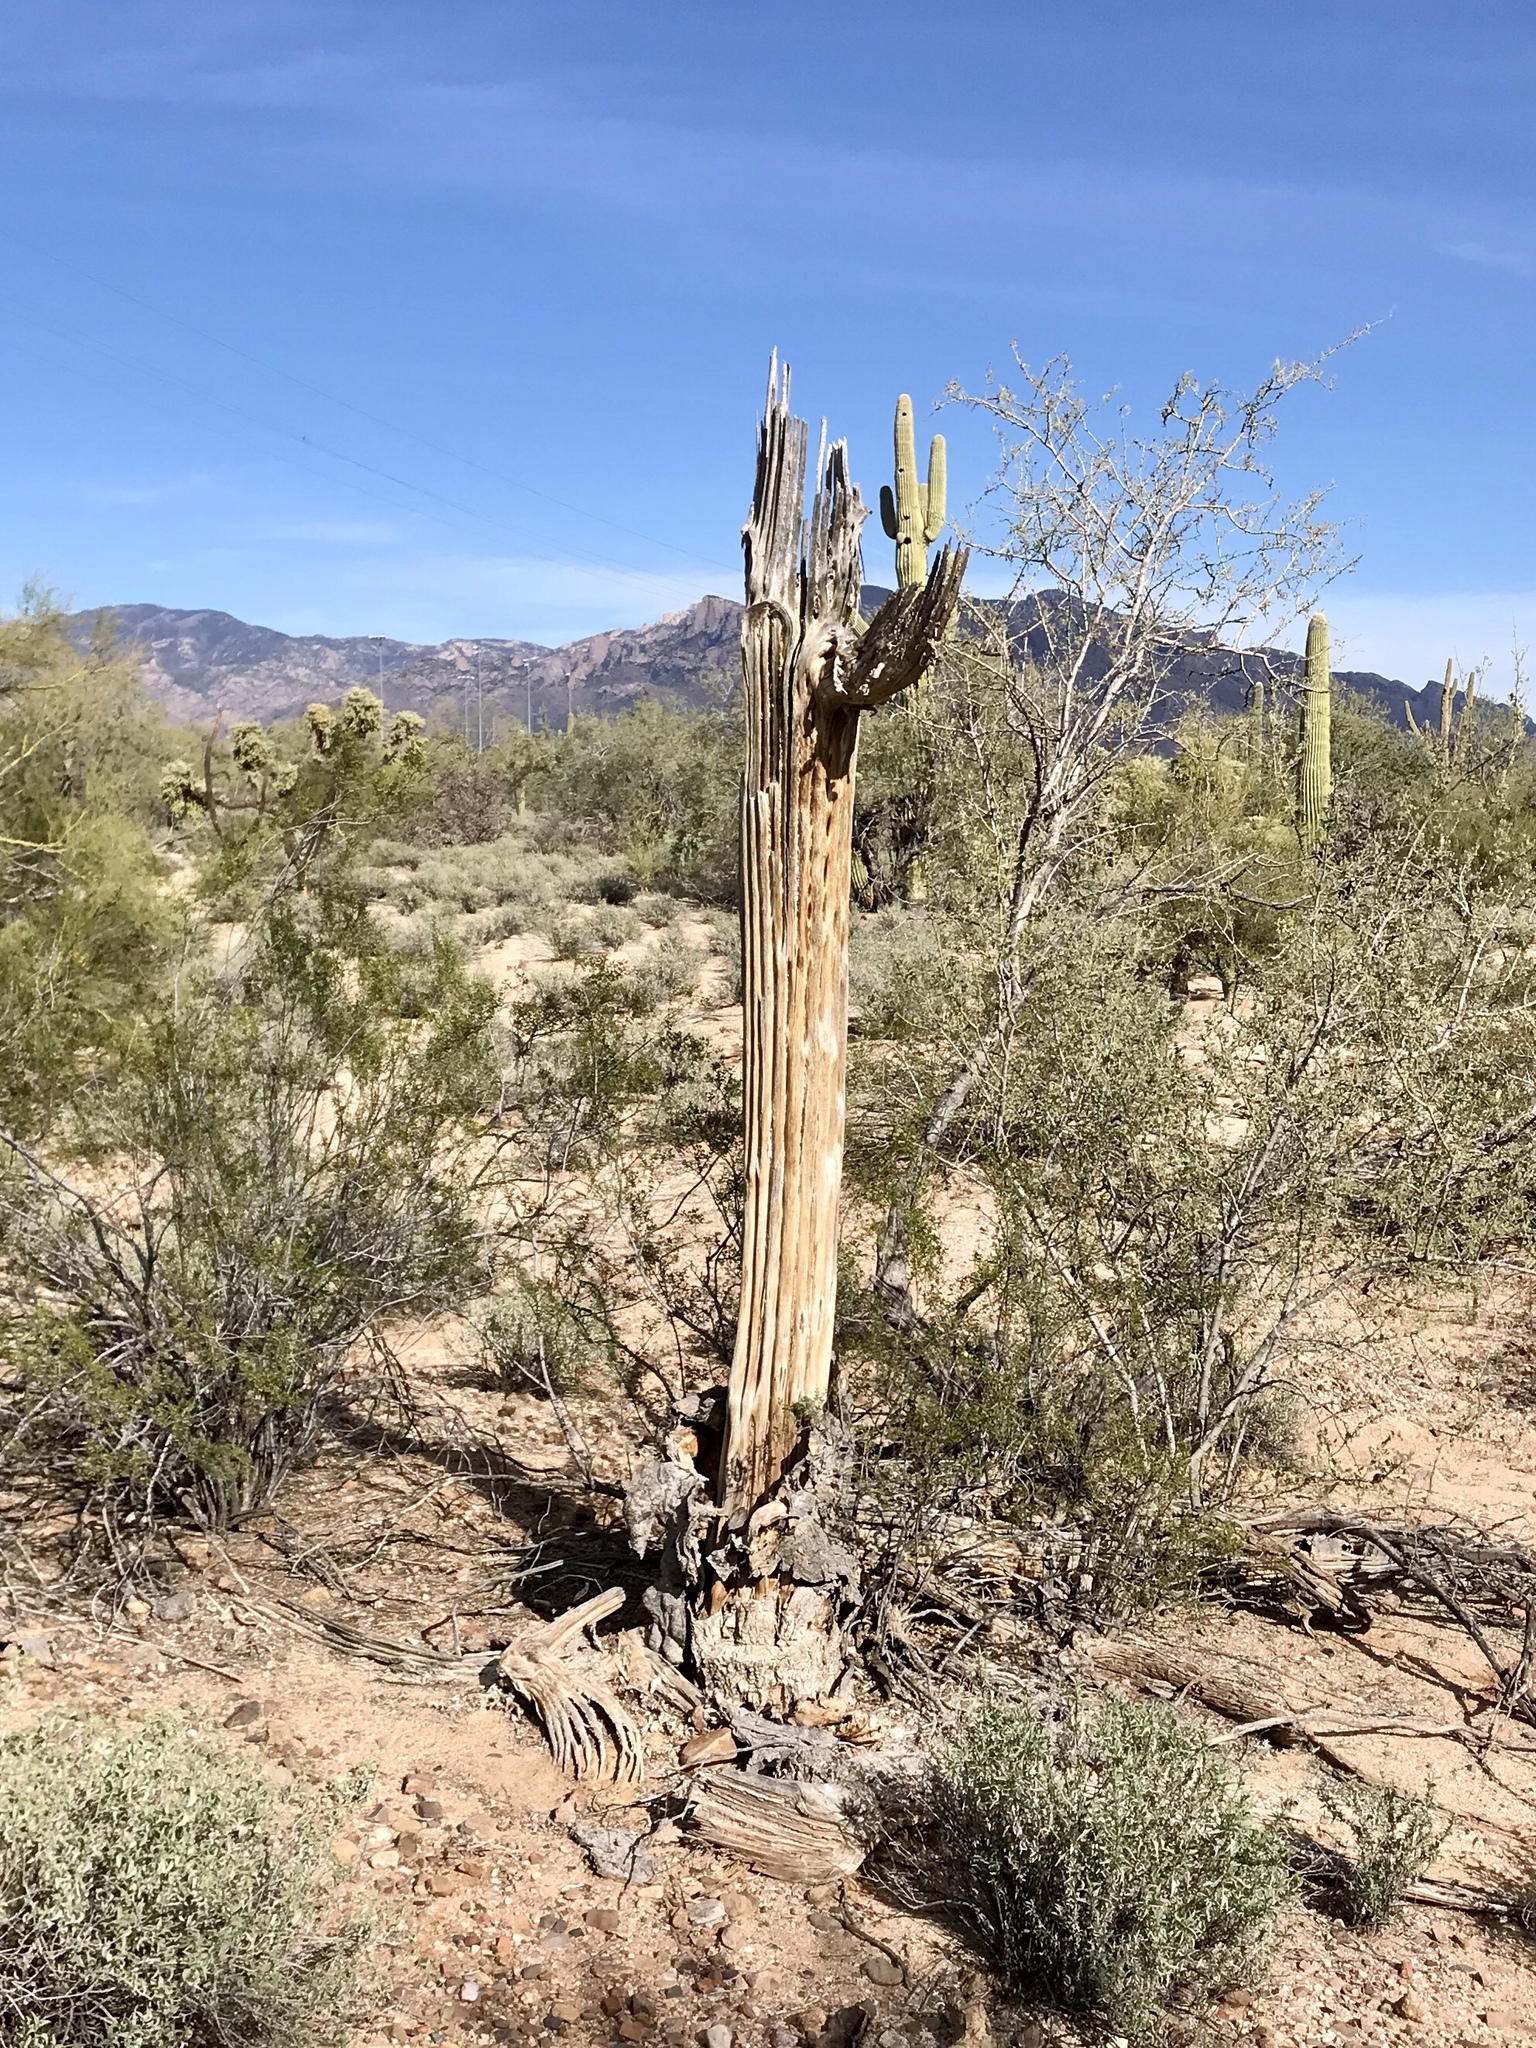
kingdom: Plantae
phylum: Tracheophyta
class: Magnoliopsida
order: Caryophyllales
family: Cactaceae
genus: Carnegiea
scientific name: Carnegiea gigantea
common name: Saguaro
